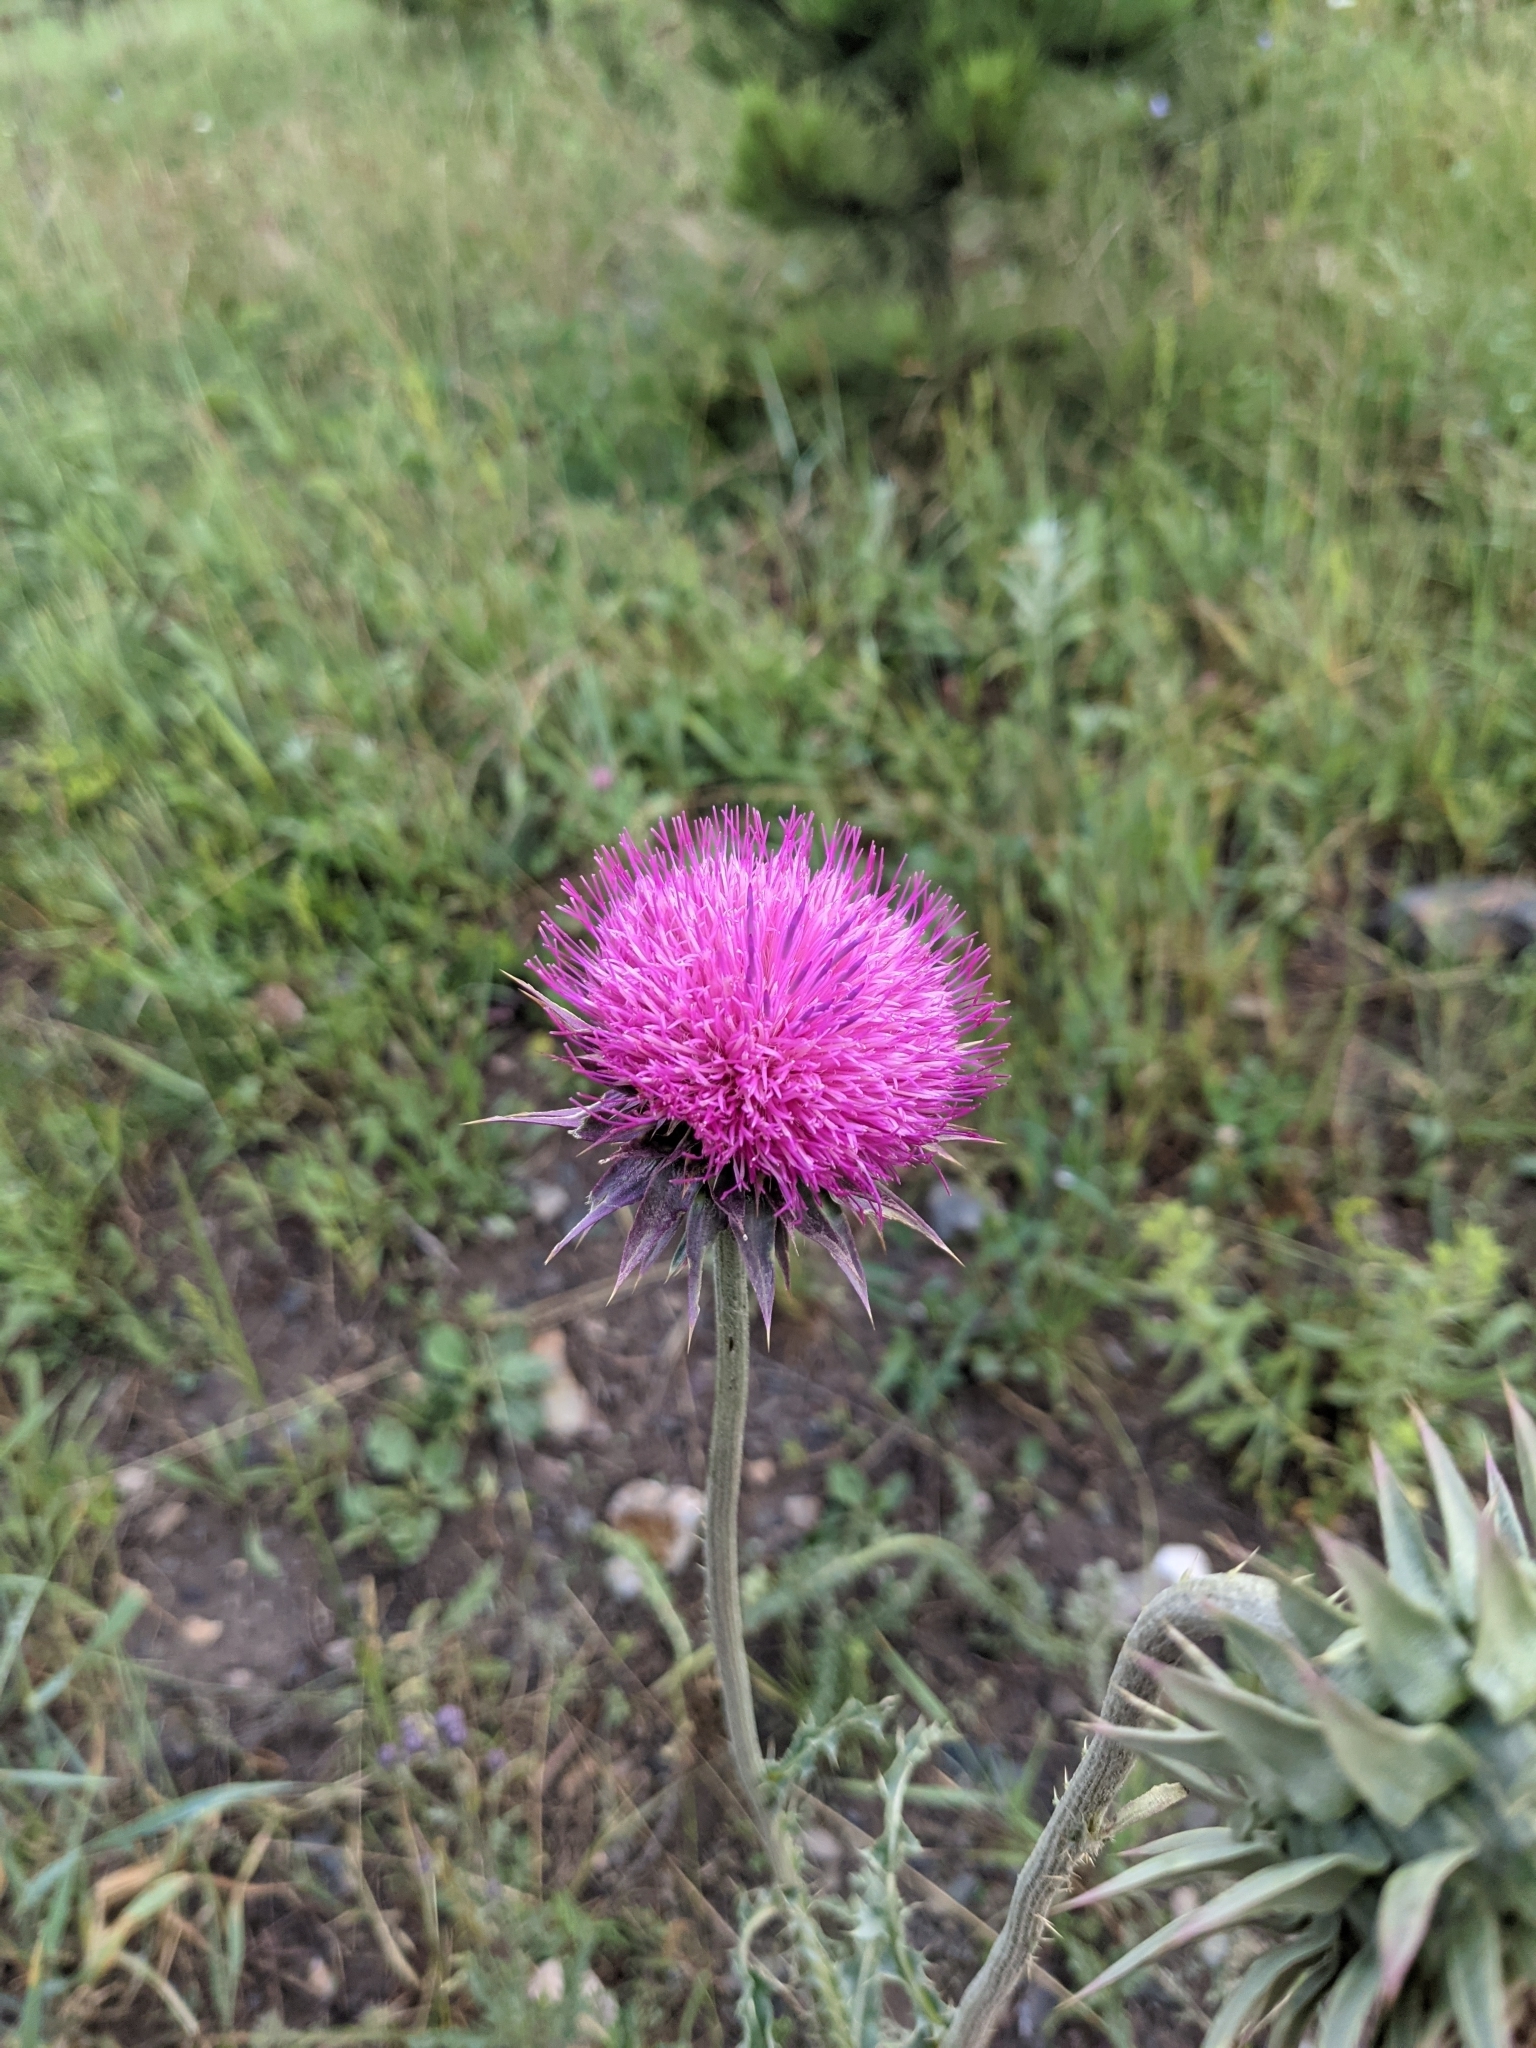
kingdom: Plantae
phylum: Tracheophyta
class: Magnoliopsida
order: Asterales
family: Asteraceae
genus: Carduus
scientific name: Carduus nutans
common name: Musk thistle
